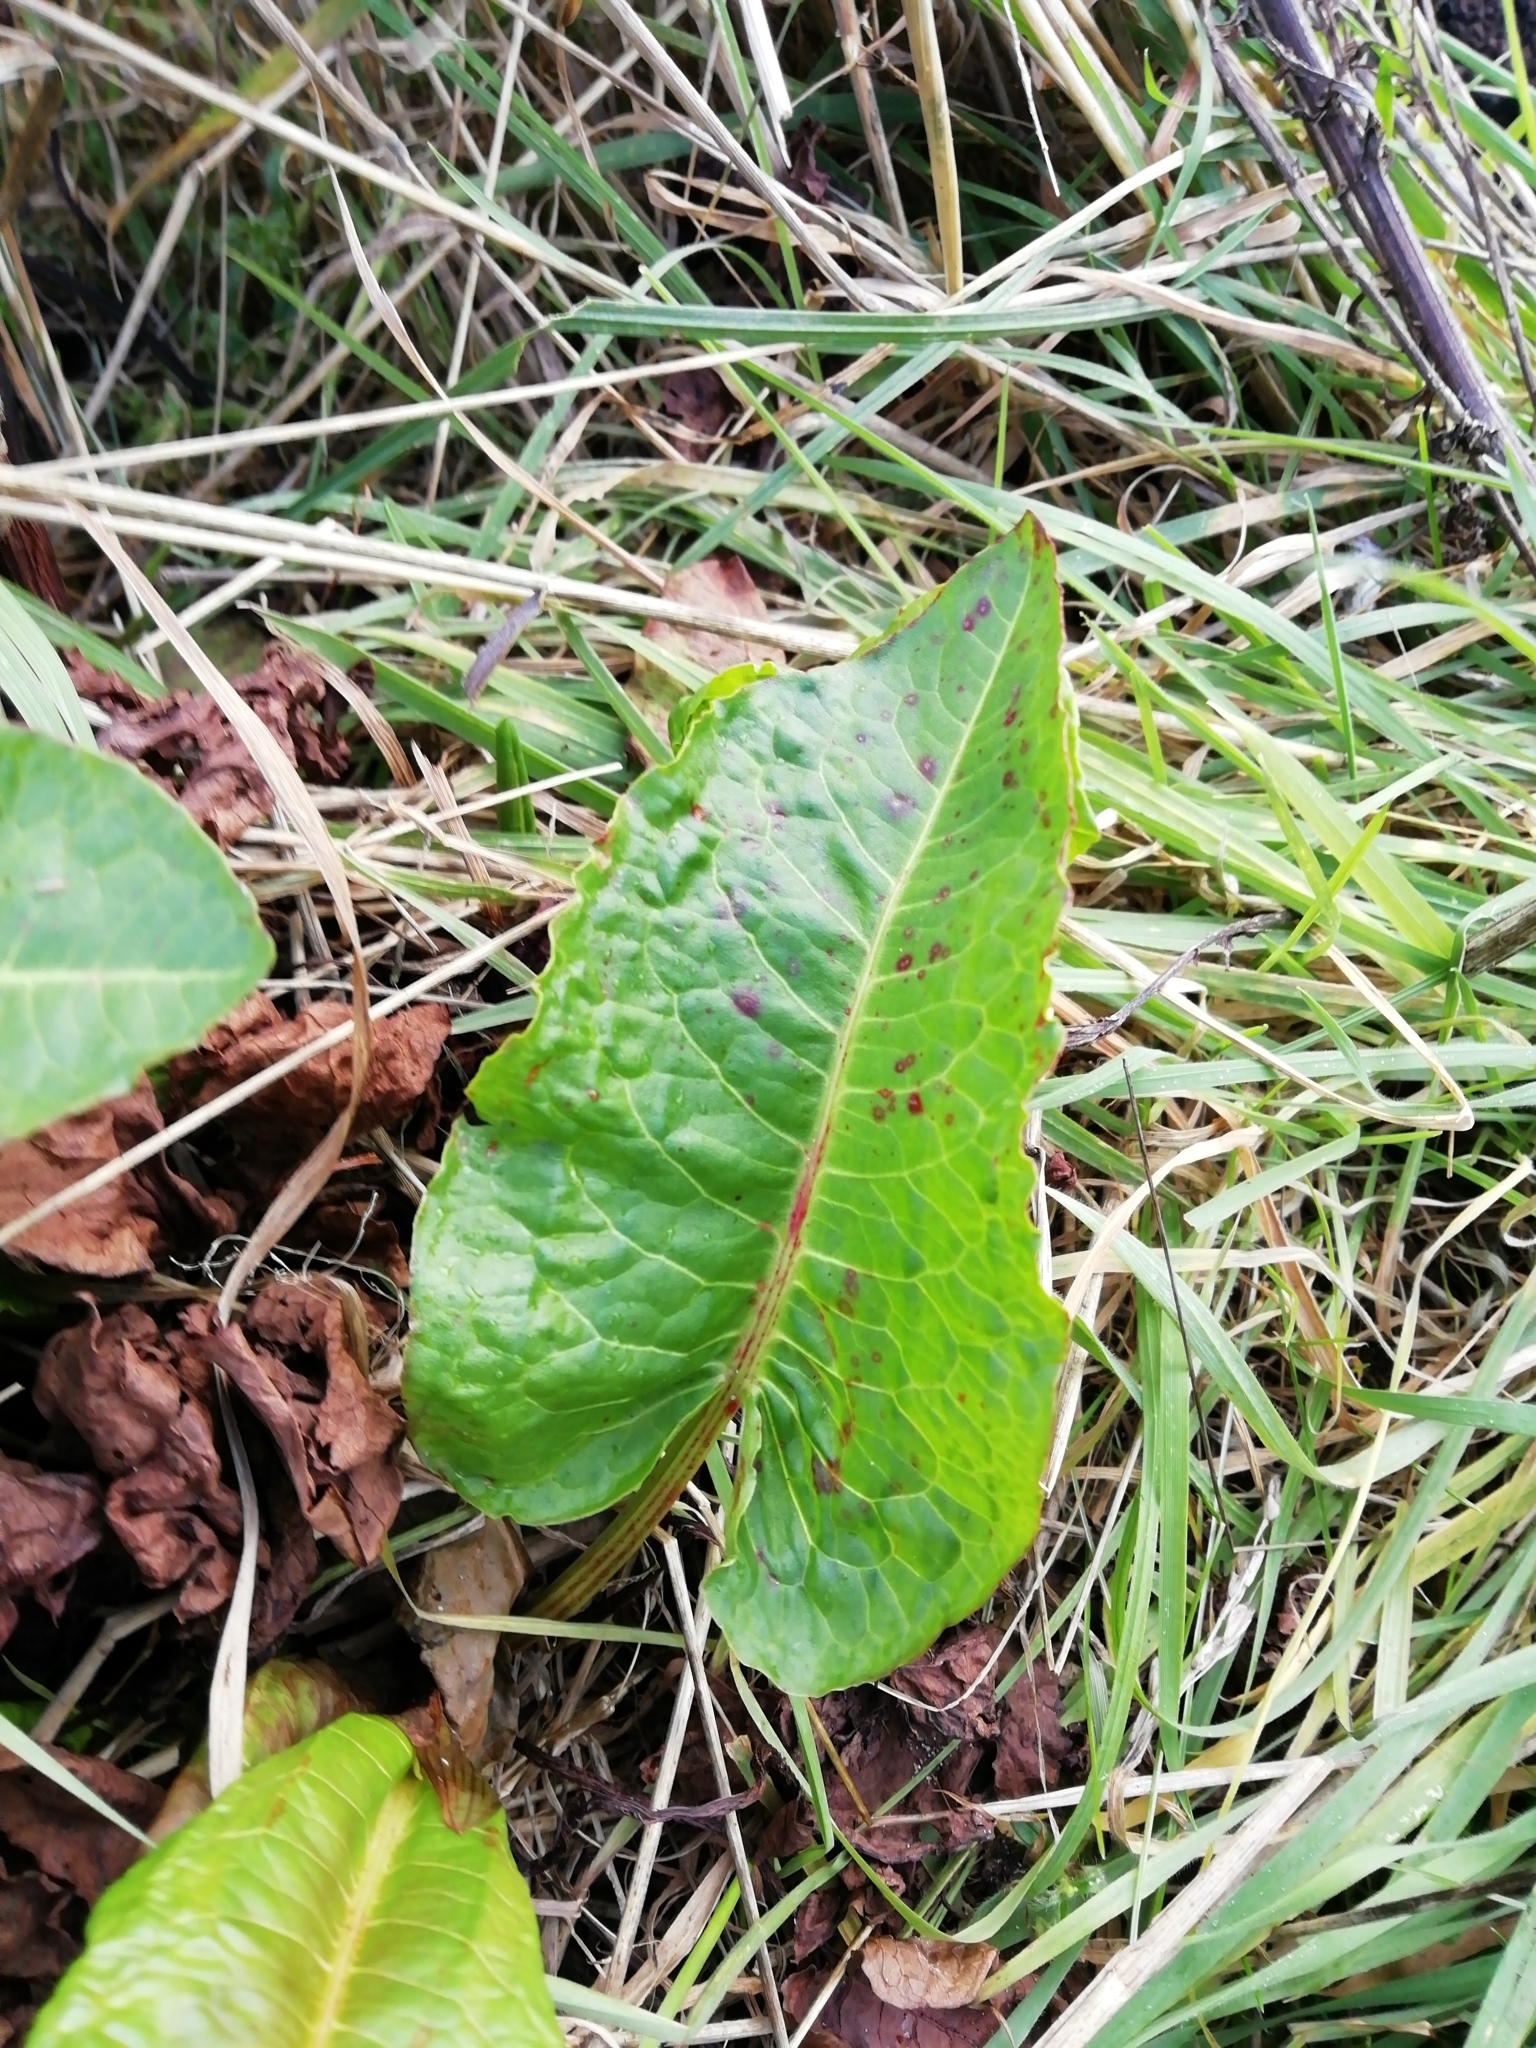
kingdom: Plantae
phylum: Tracheophyta
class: Magnoliopsida
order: Caryophyllales
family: Polygonaceae
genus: Rumex
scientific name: Rumex obtusifolius
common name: Bitter dock
